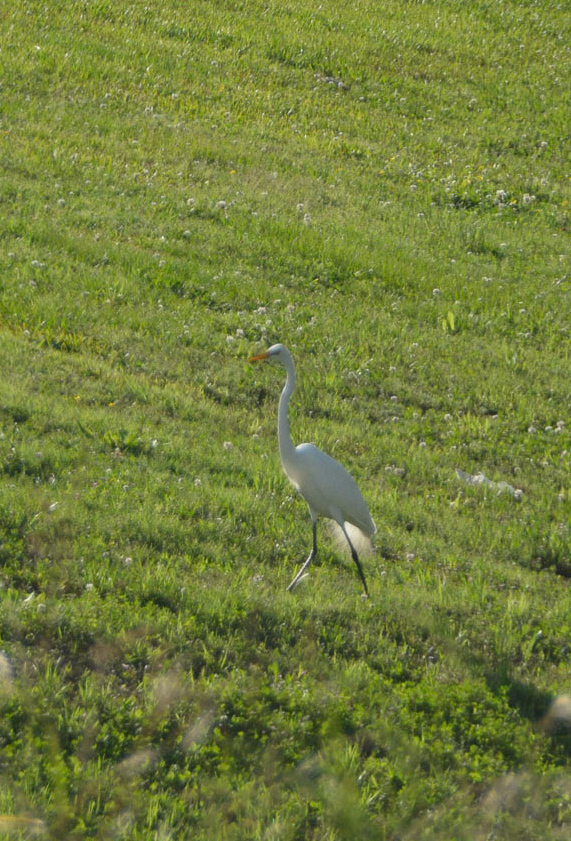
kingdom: Animalia
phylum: Chordata
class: Aves
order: Pelecaniformes
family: Ardeidae
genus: Ardea
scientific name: Ardea alba
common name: Great egret
